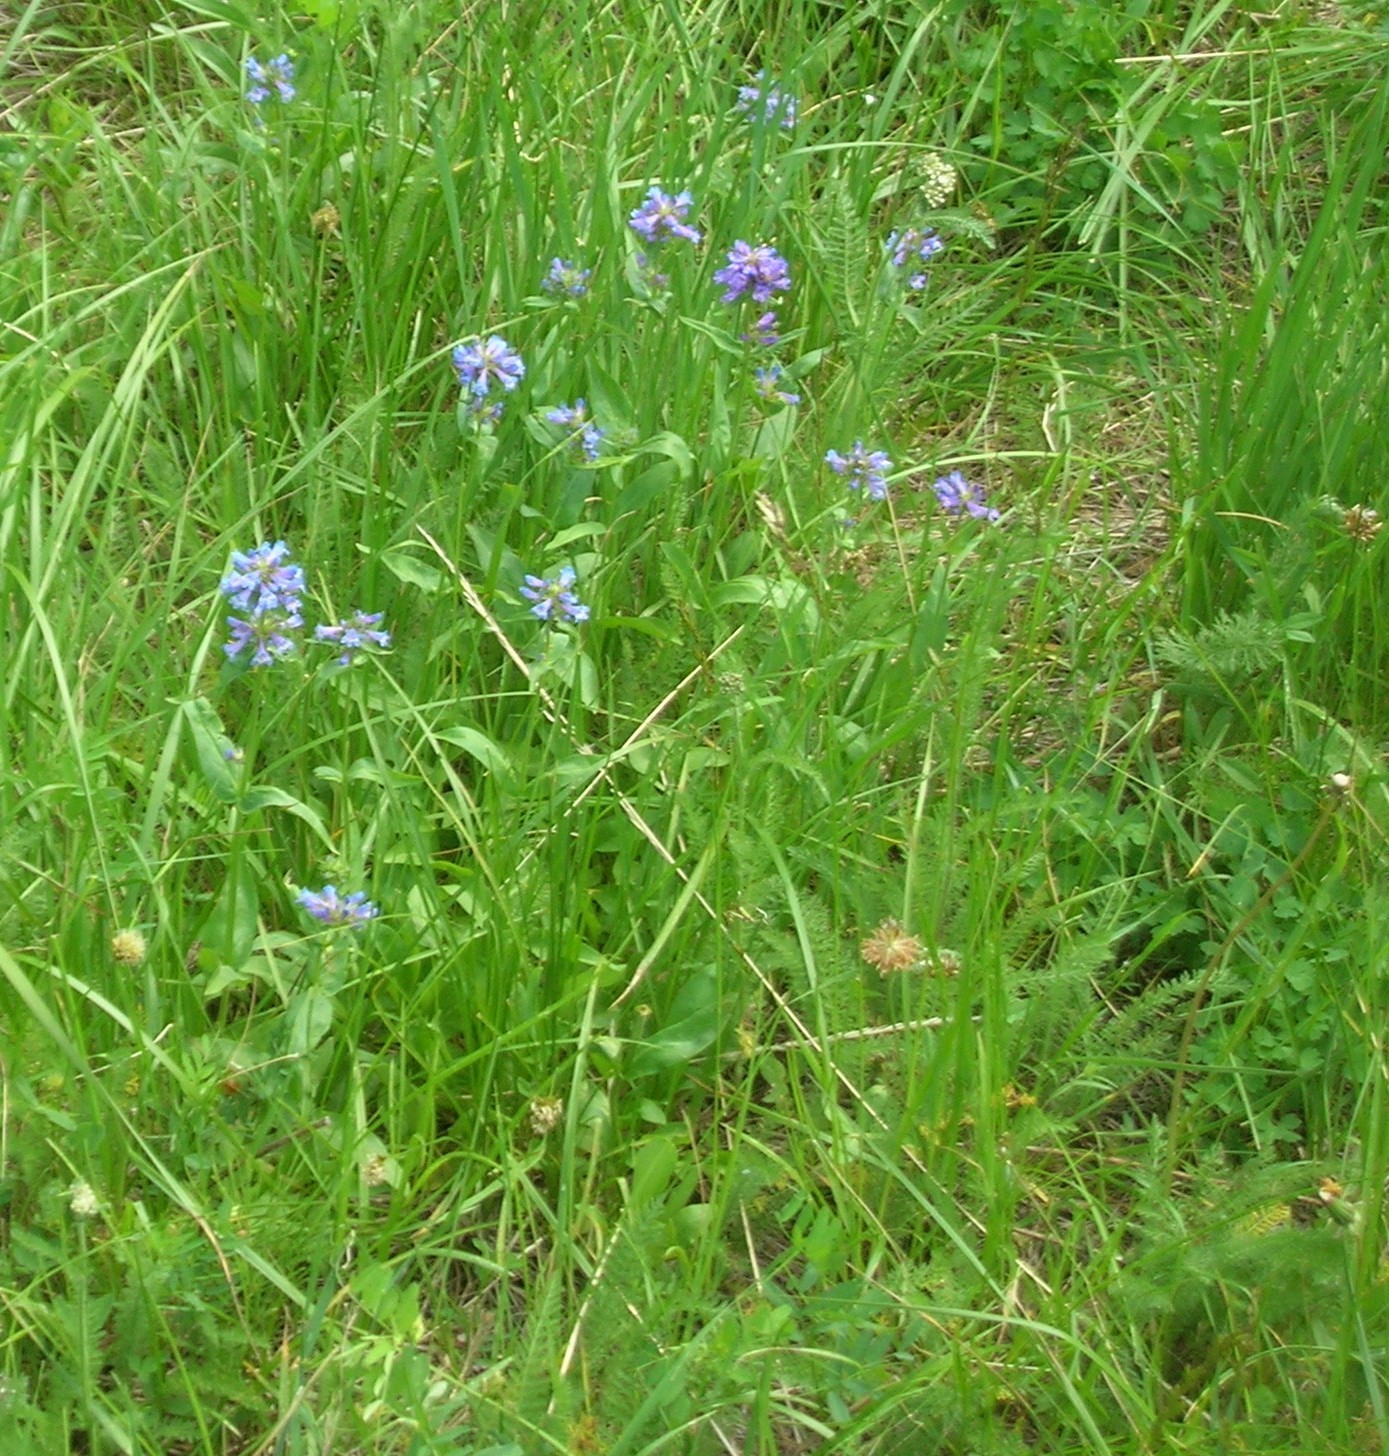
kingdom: Plantae
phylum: Tracheophyta
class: Magnoliopsida
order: Lamiales
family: Plantaginaceae
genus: Penstemon
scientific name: Penstemon rydbergii
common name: Rydberg's beardtongue
